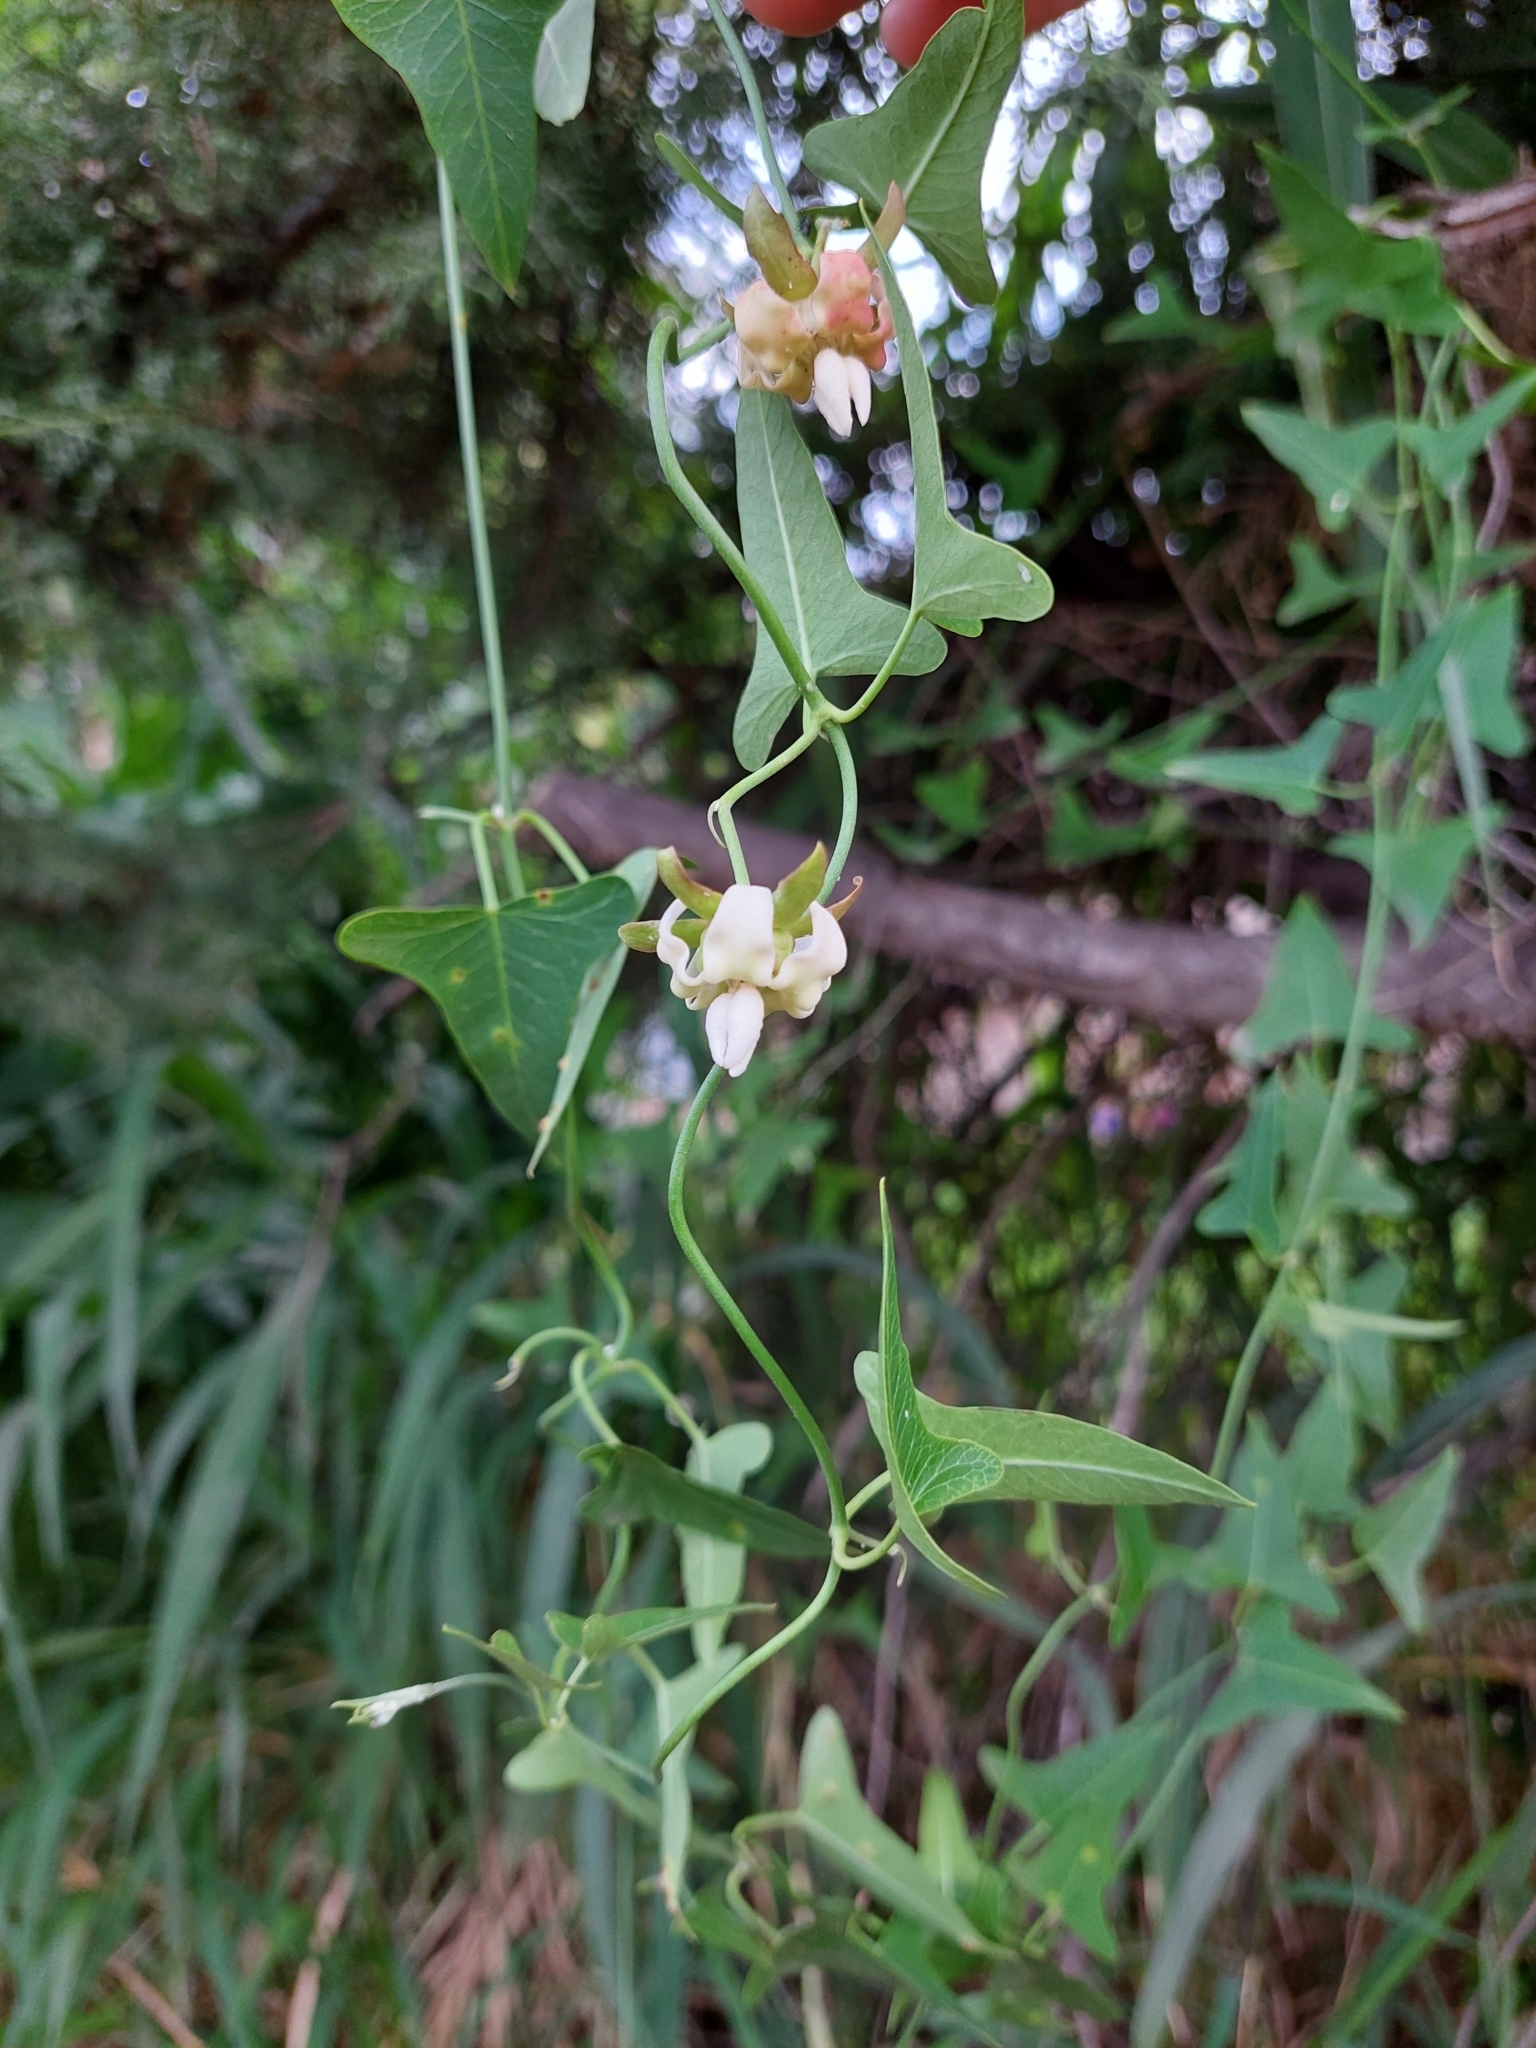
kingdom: Plantae
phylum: Tracheophyta
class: Magnoliopsida
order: Gentianales
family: Apocynaceae
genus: Araujia
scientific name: Araujia angustifolia
